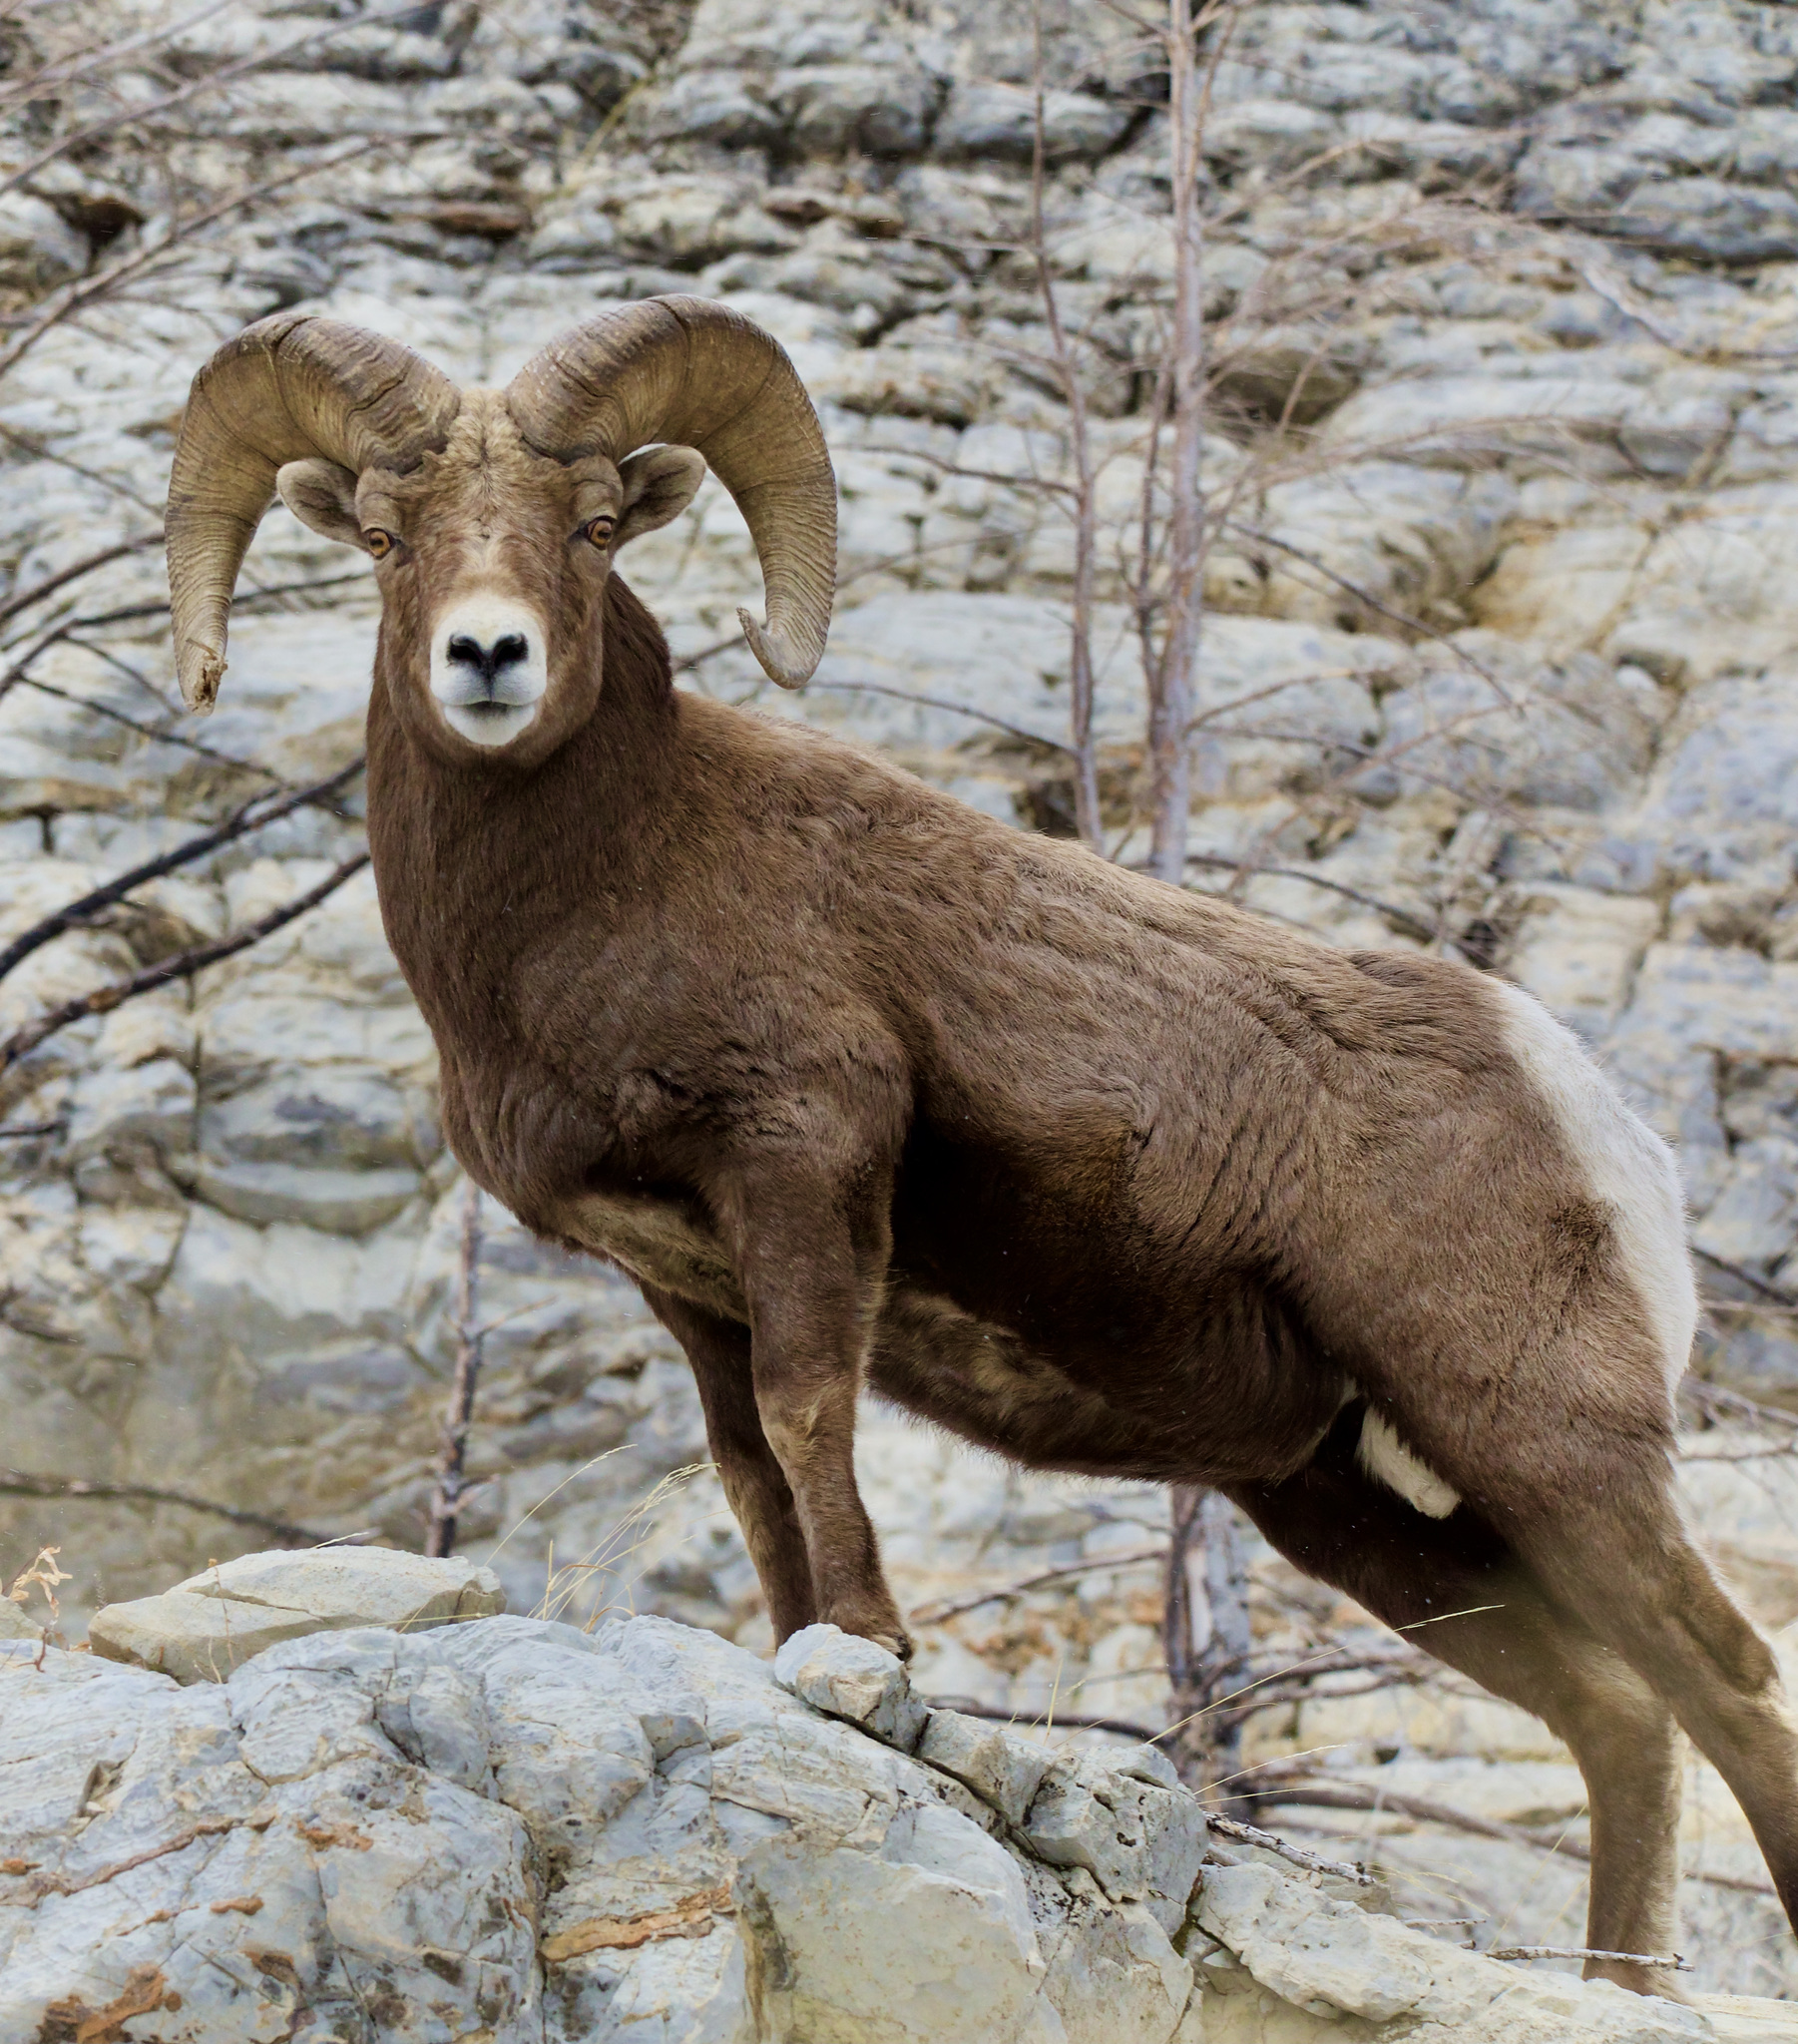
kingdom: Animalia
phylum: Chordata
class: Mammalia
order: Artiodactyla
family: Bovidae
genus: Ovis
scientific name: Ovis canadensis
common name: Bighorn sheep
